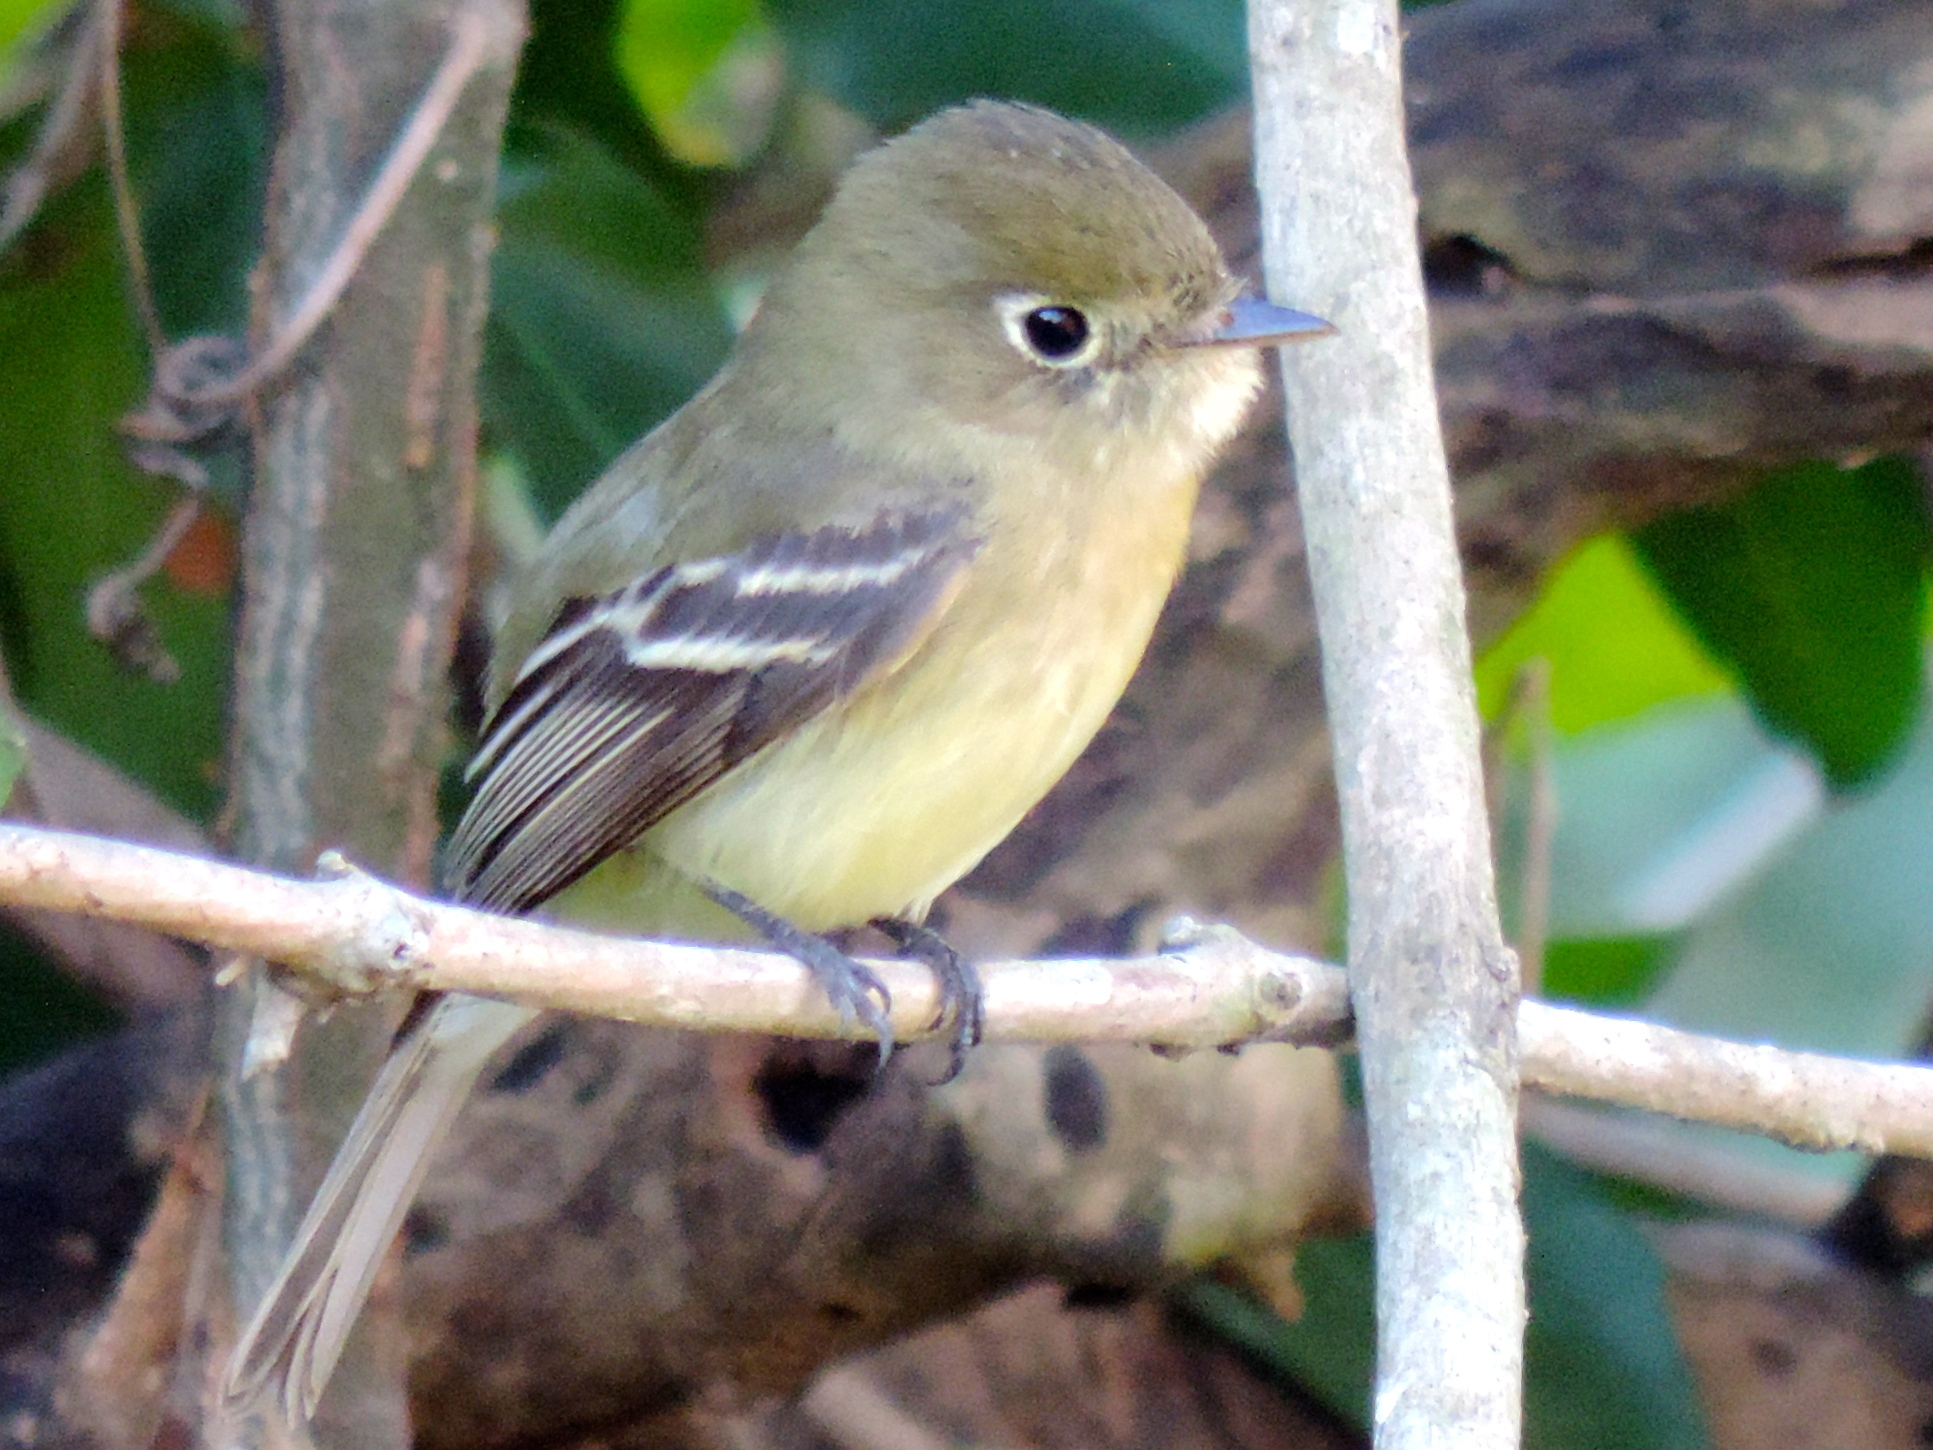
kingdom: Animalia
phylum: Chordata
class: Aves
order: Passeriformes
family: Tyrannidae
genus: Empidonax
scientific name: Empidonax difficilis
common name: Pacific-slope flycatcher
